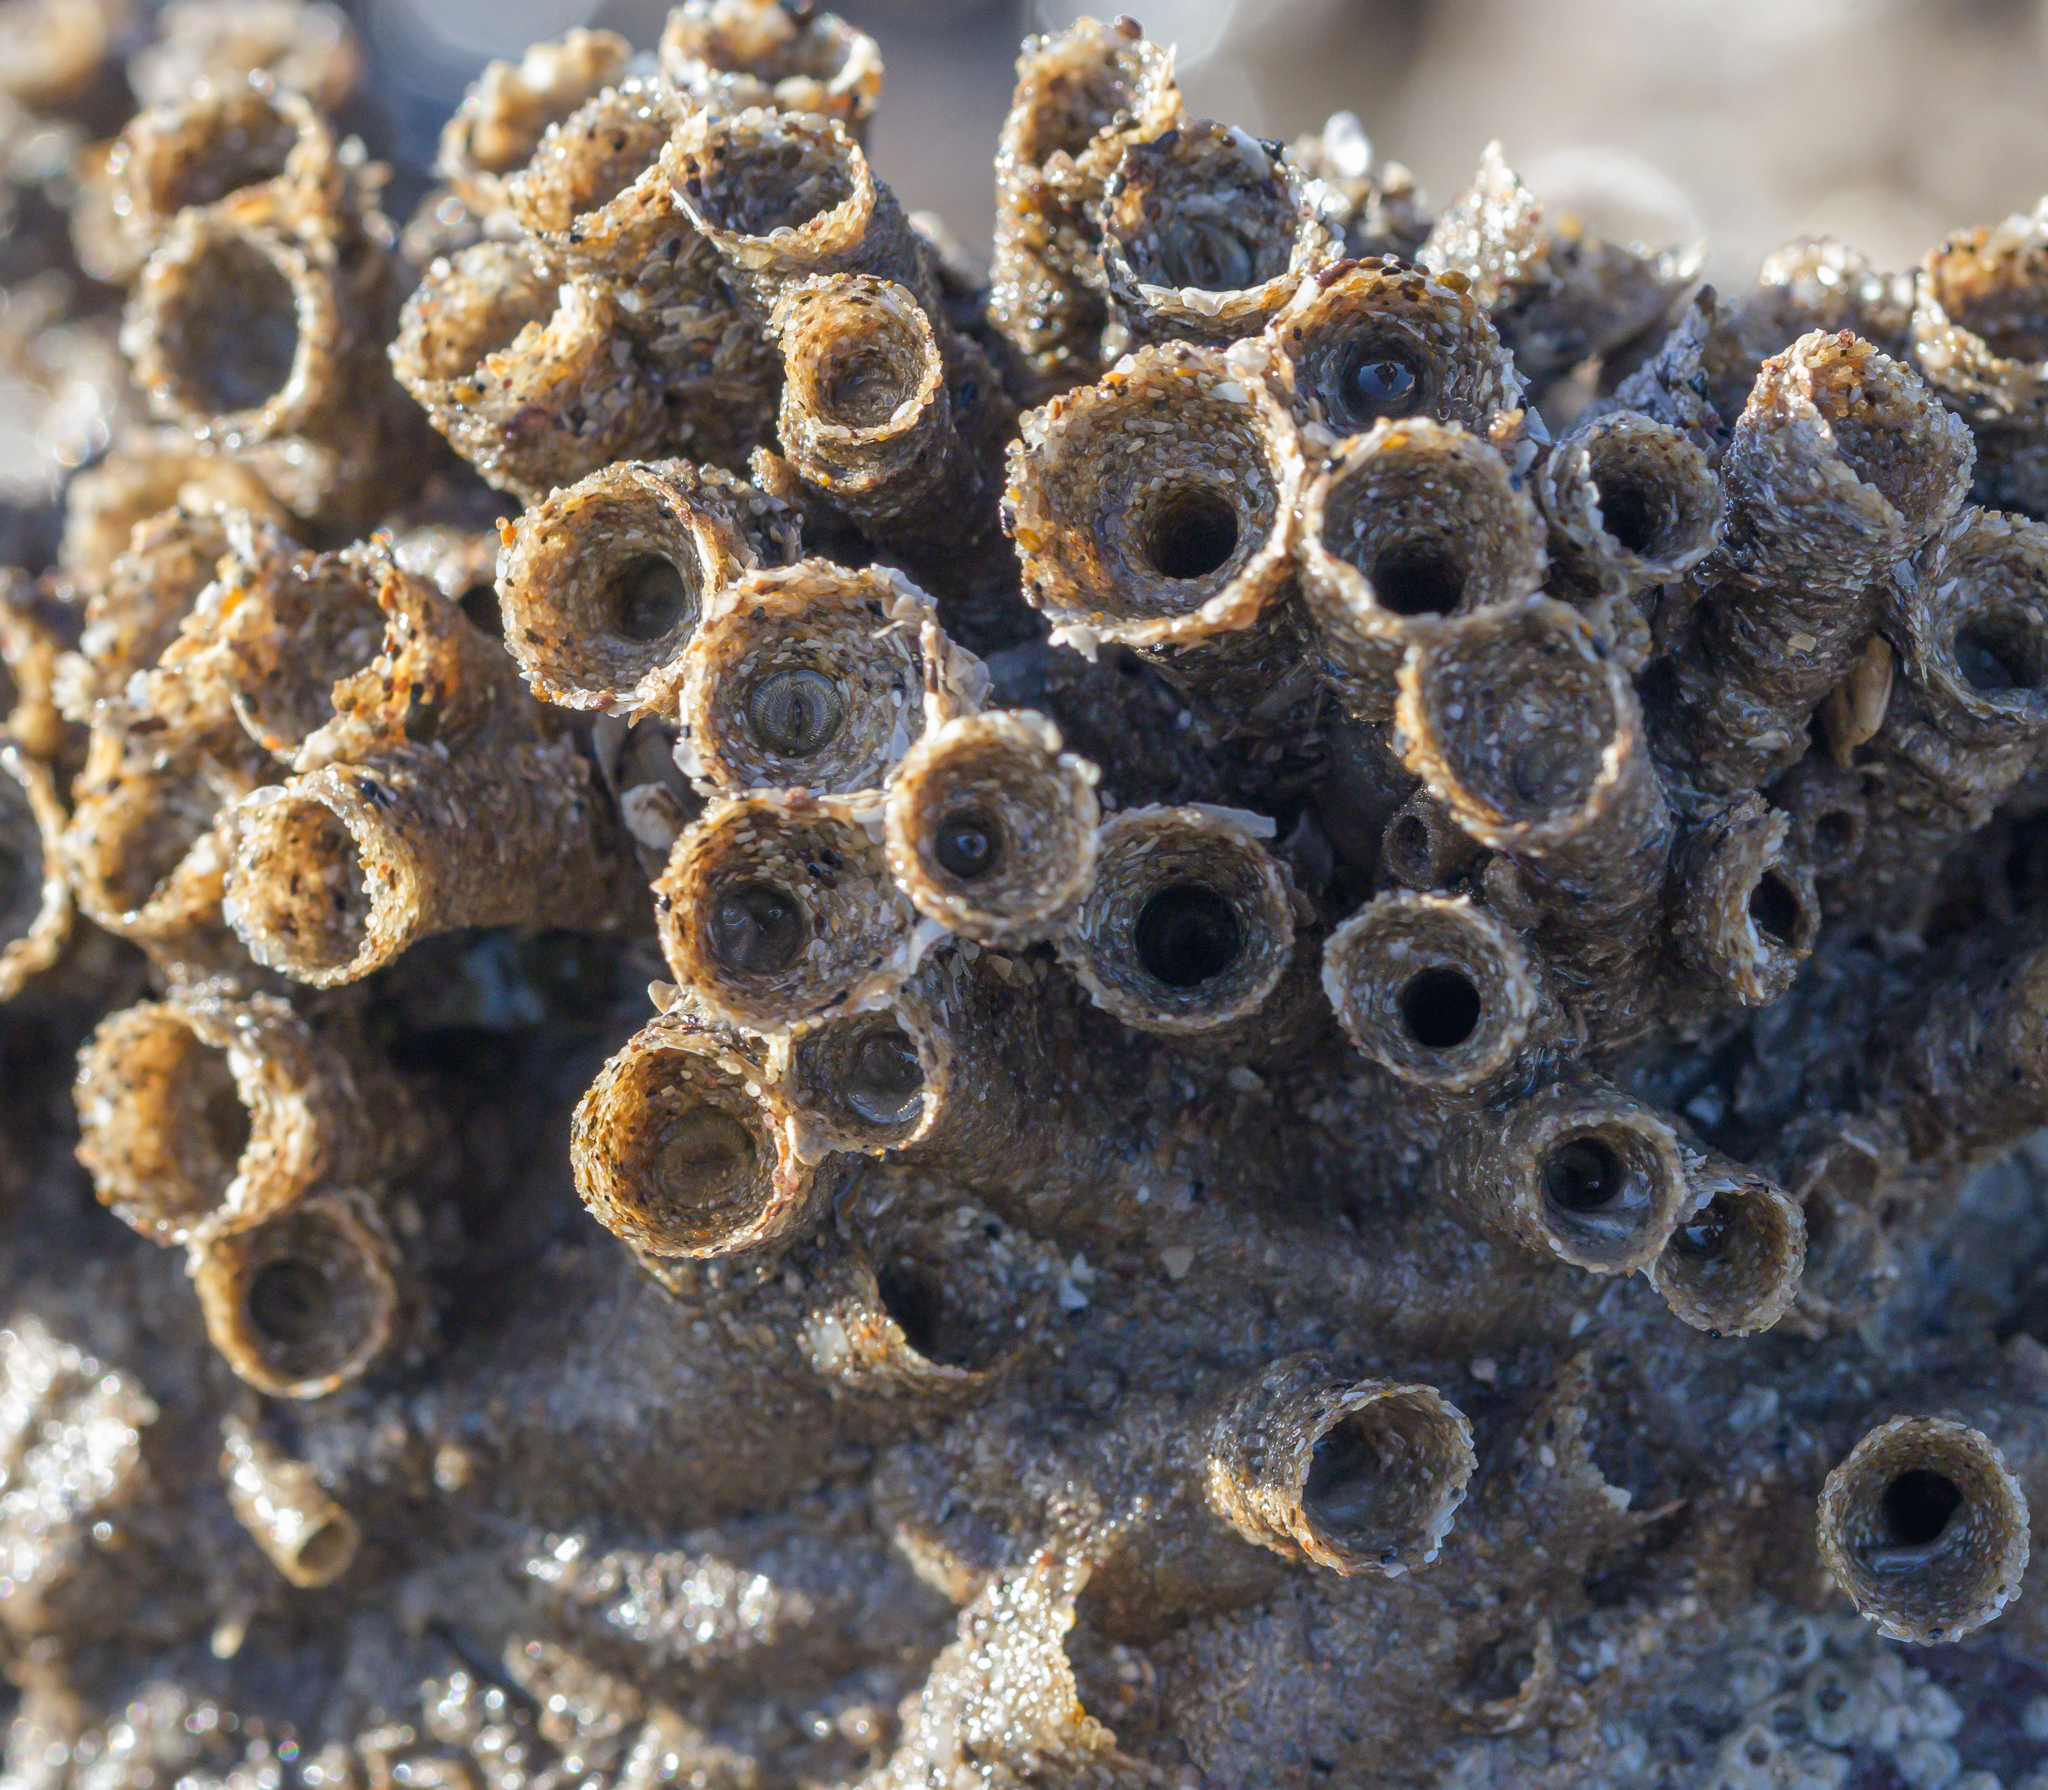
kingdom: Animalia
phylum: Annelida
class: Polychaeta
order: Sabellida
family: Sabellariidae
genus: Sabellaria
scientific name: Sabellaria alveolata
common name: Honeycomb worm
